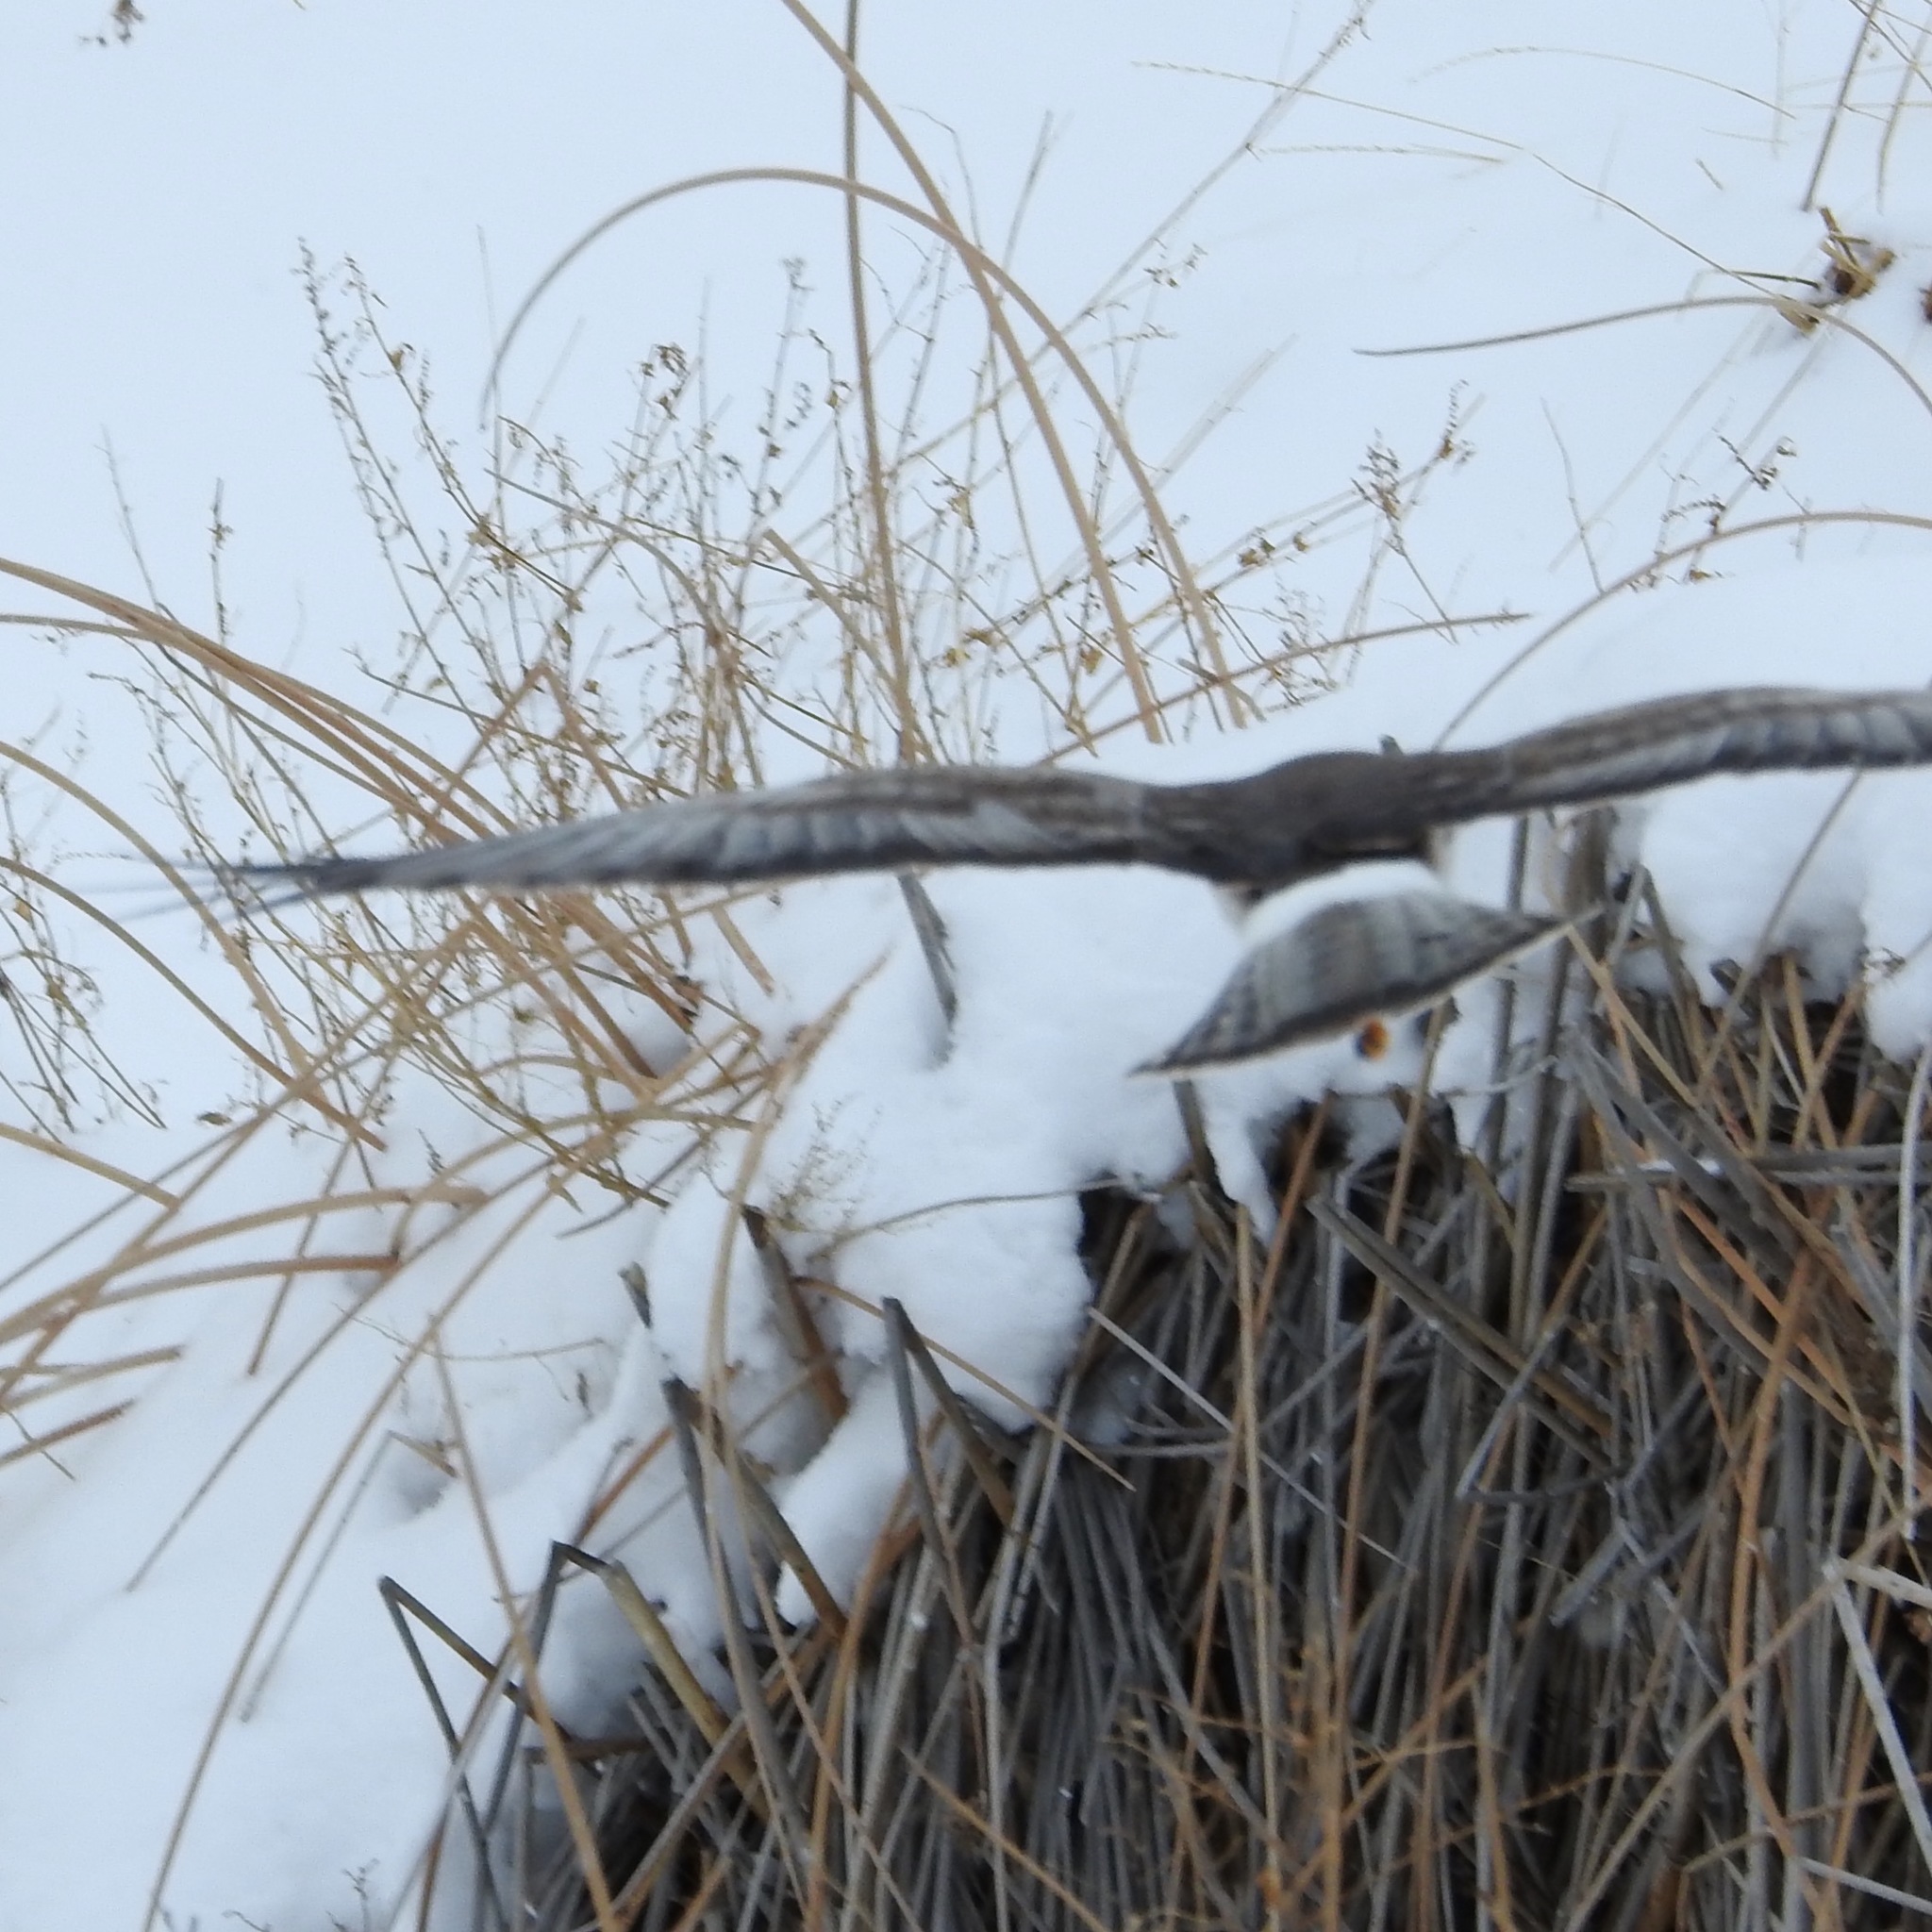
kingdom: Animalia
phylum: Chordata
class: Aves
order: Accipitriformes
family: Accipitridae
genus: Circus
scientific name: Circus cyaneus
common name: Hen harrier
